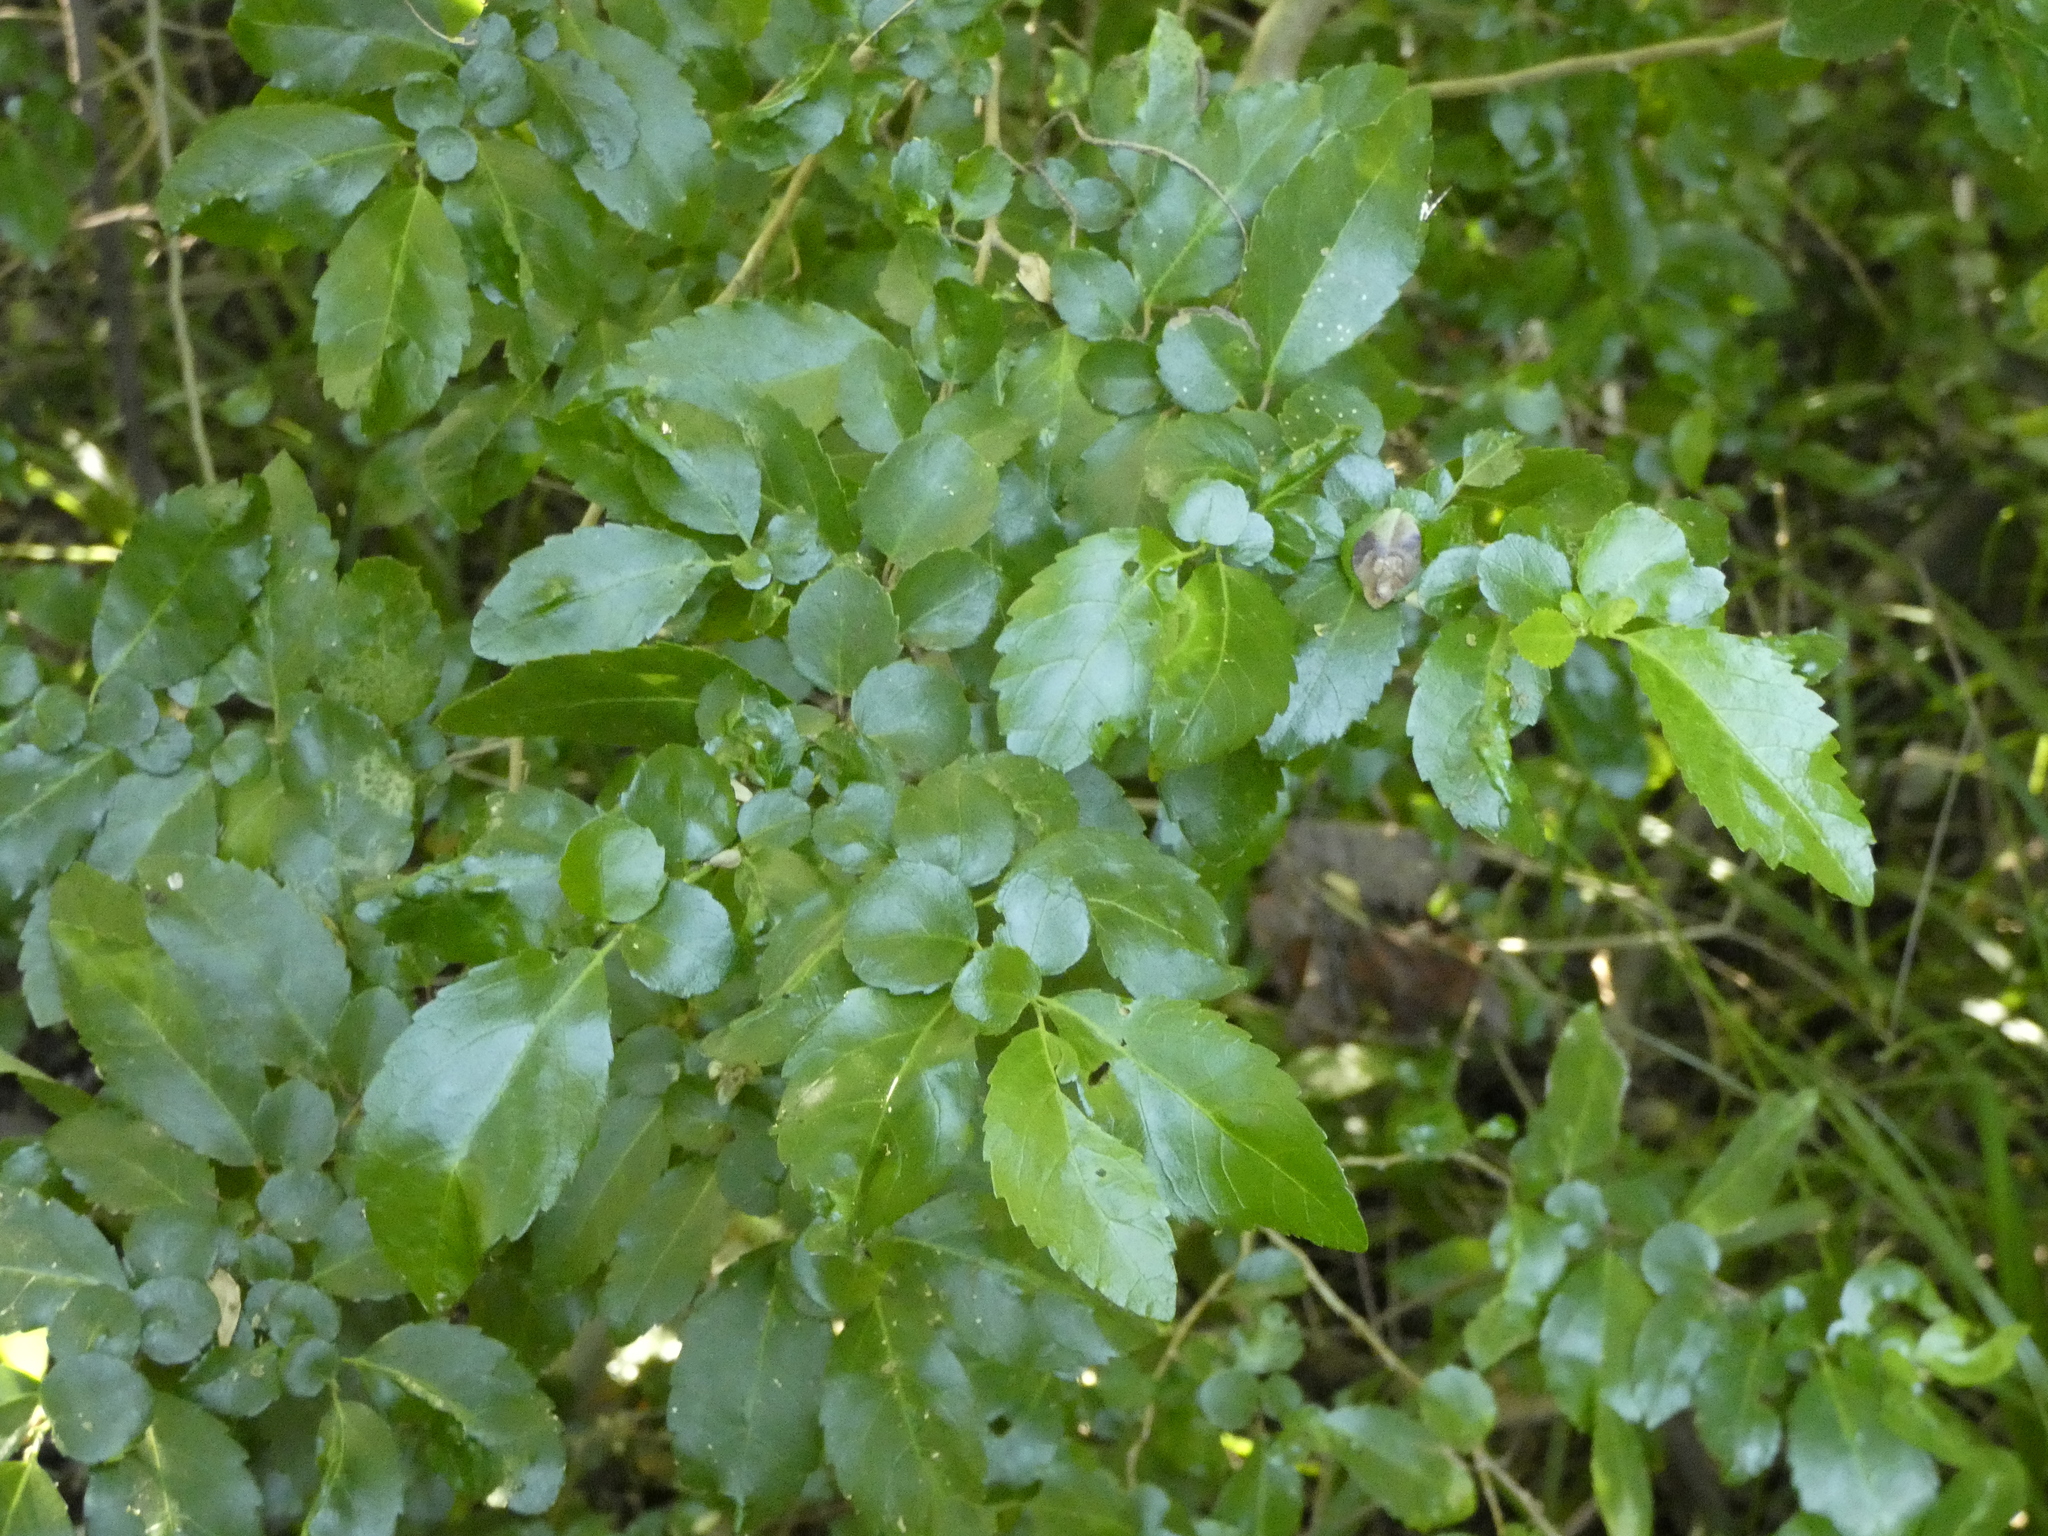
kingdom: Plantae
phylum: Tracheophyta
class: Magnoliopsida
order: Malpighiales
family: Salicaceae
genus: Azara
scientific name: Azara serrata
